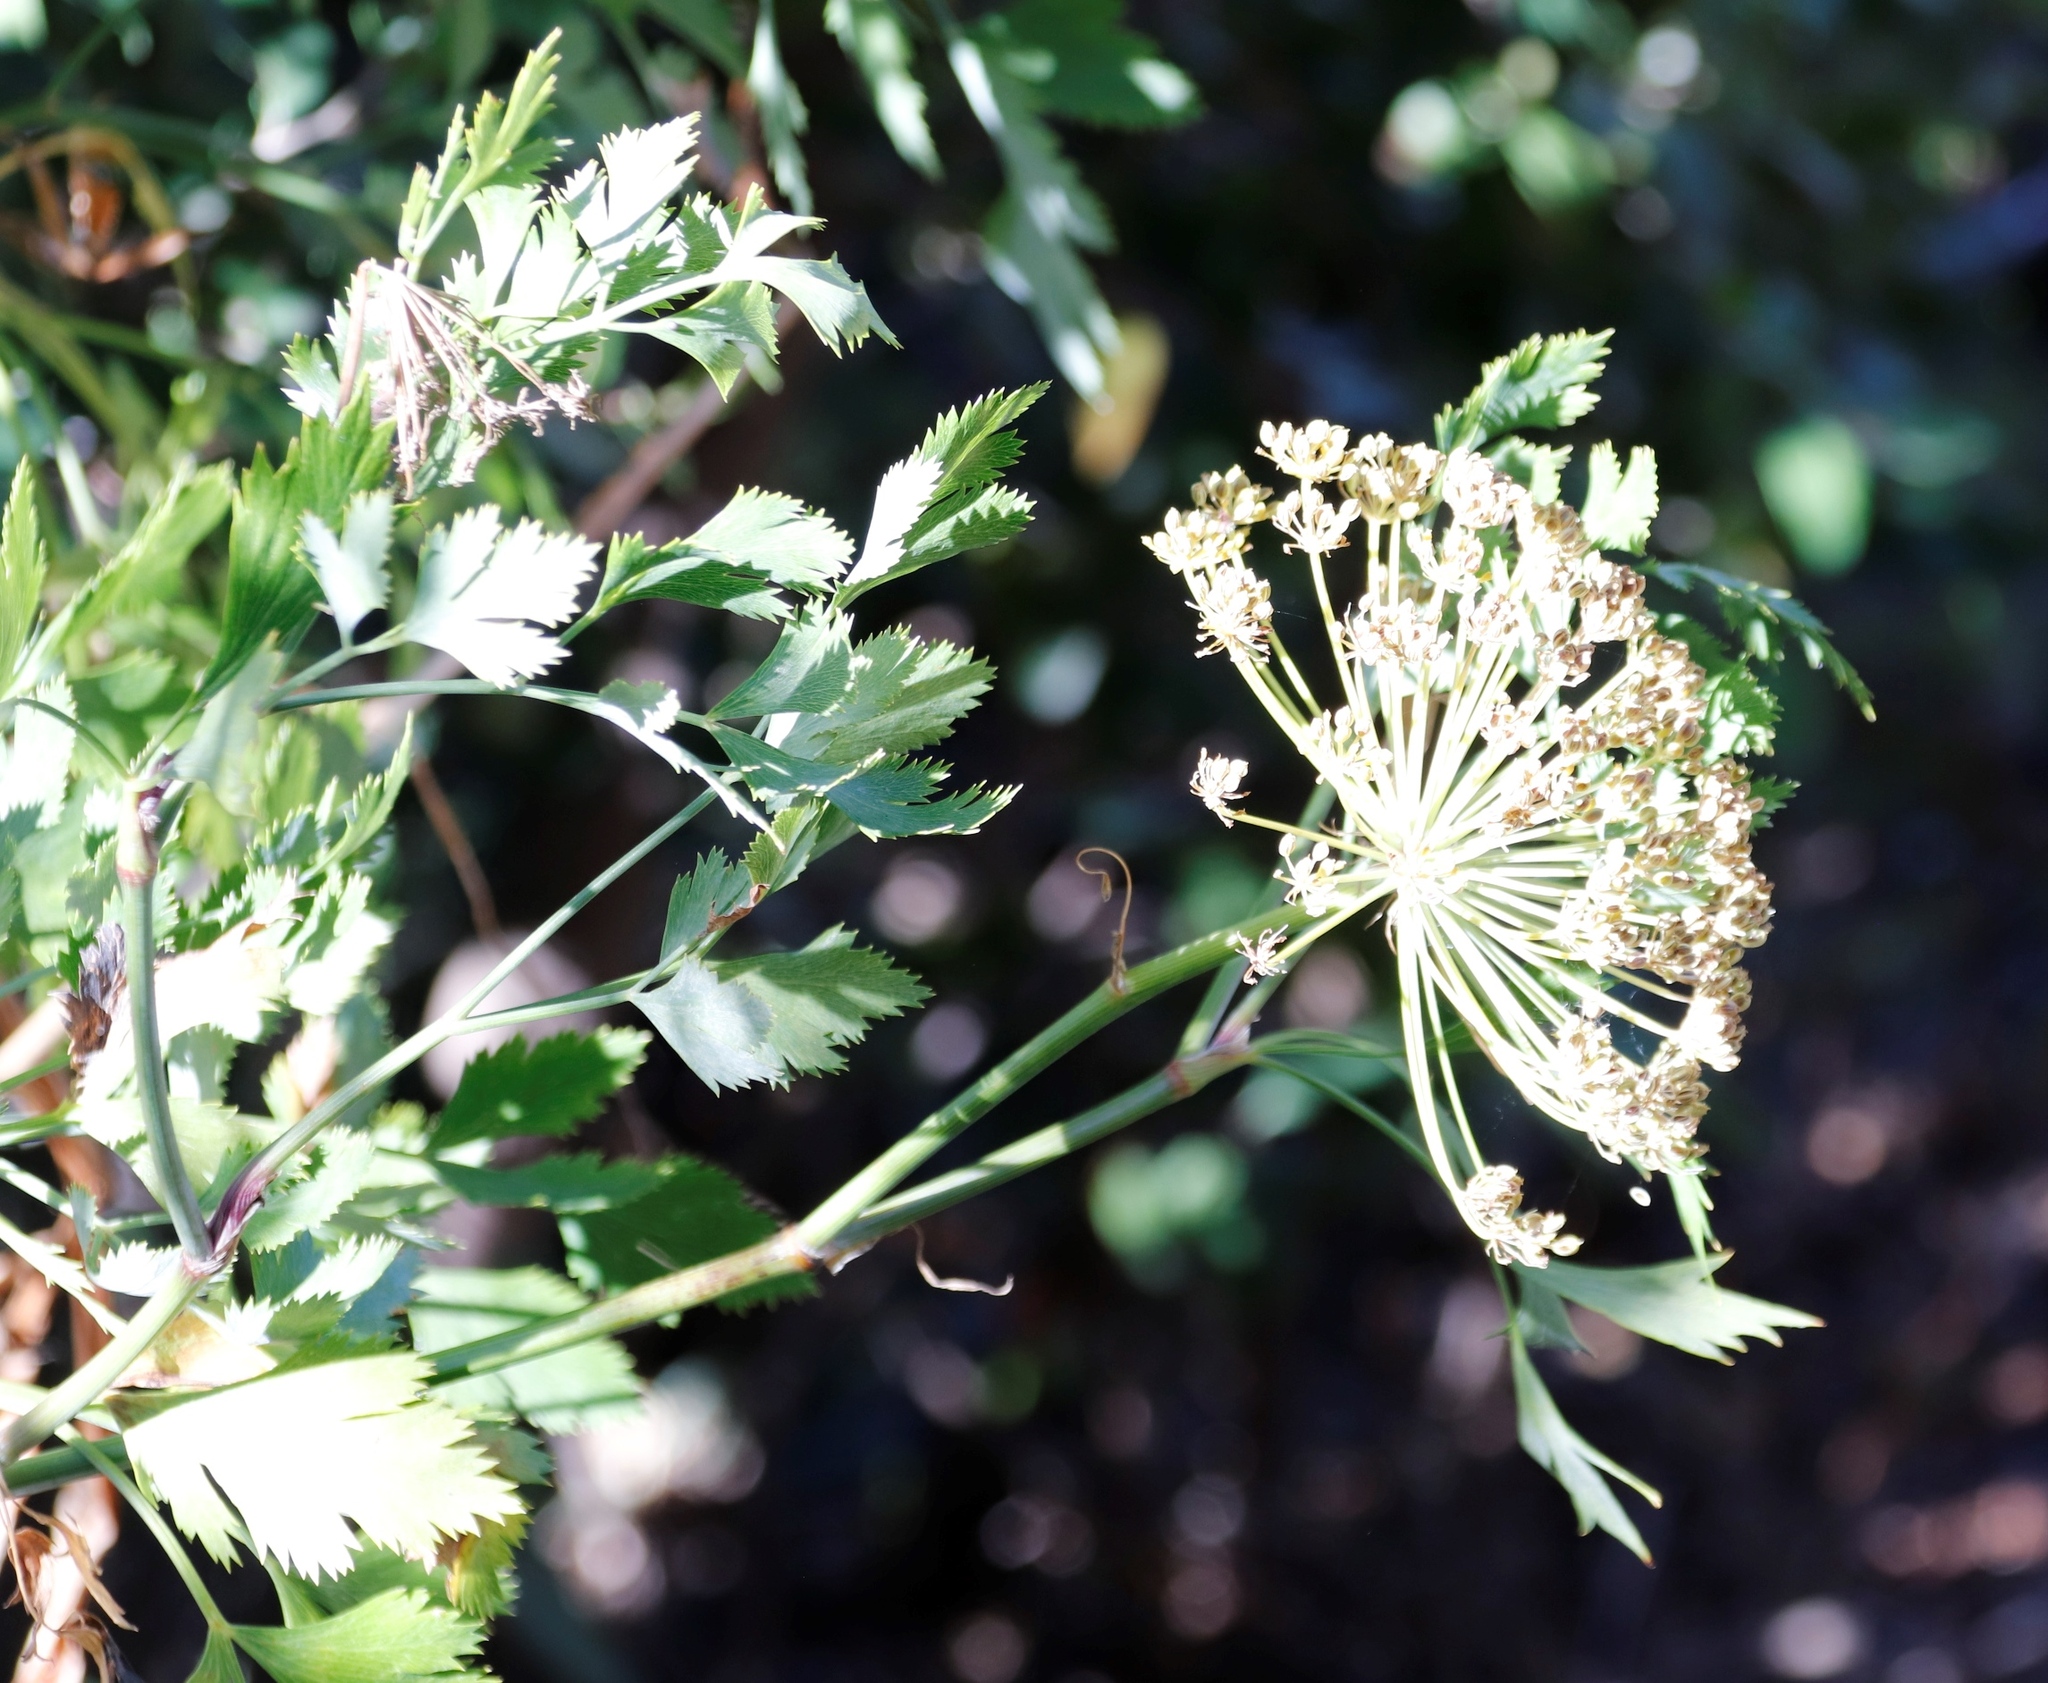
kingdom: Plantae
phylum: Tracheophyta
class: Magnoliopsida
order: Apiales
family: Apiaceae
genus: Notobubon
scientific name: Notobubon galbanum
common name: Blisterbush
